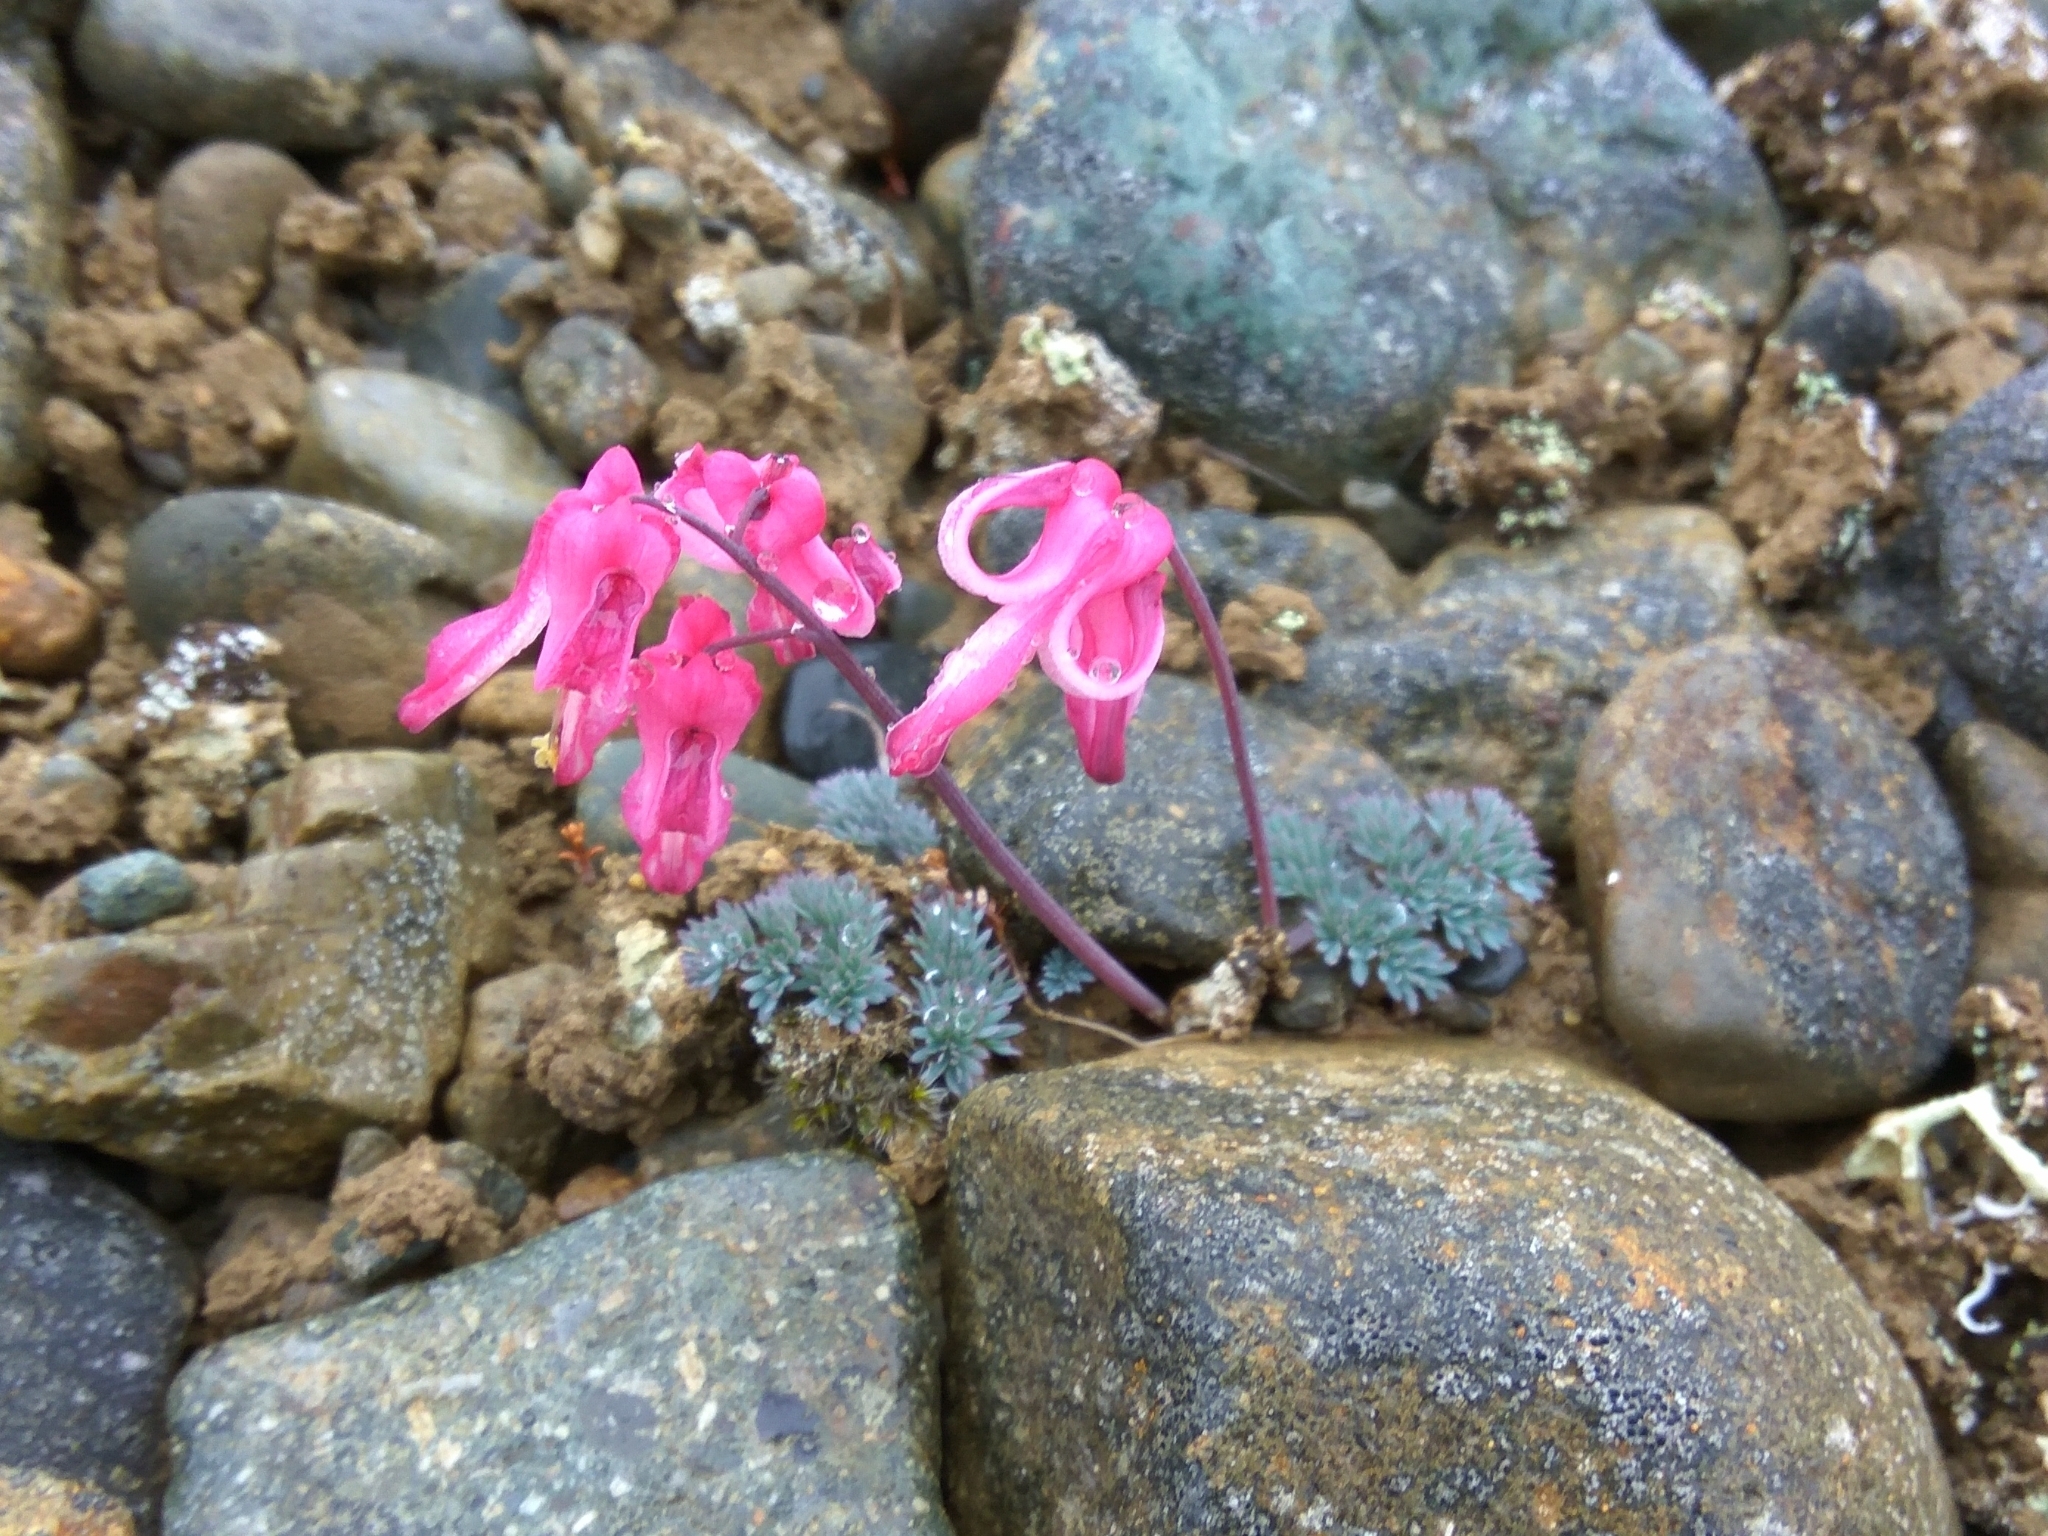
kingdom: Plantae
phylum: Tracheophyta
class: Magnoliopsida
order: Ranunculales
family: Papaveraceae
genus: Dicentra
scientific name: Dicentra peregrina
